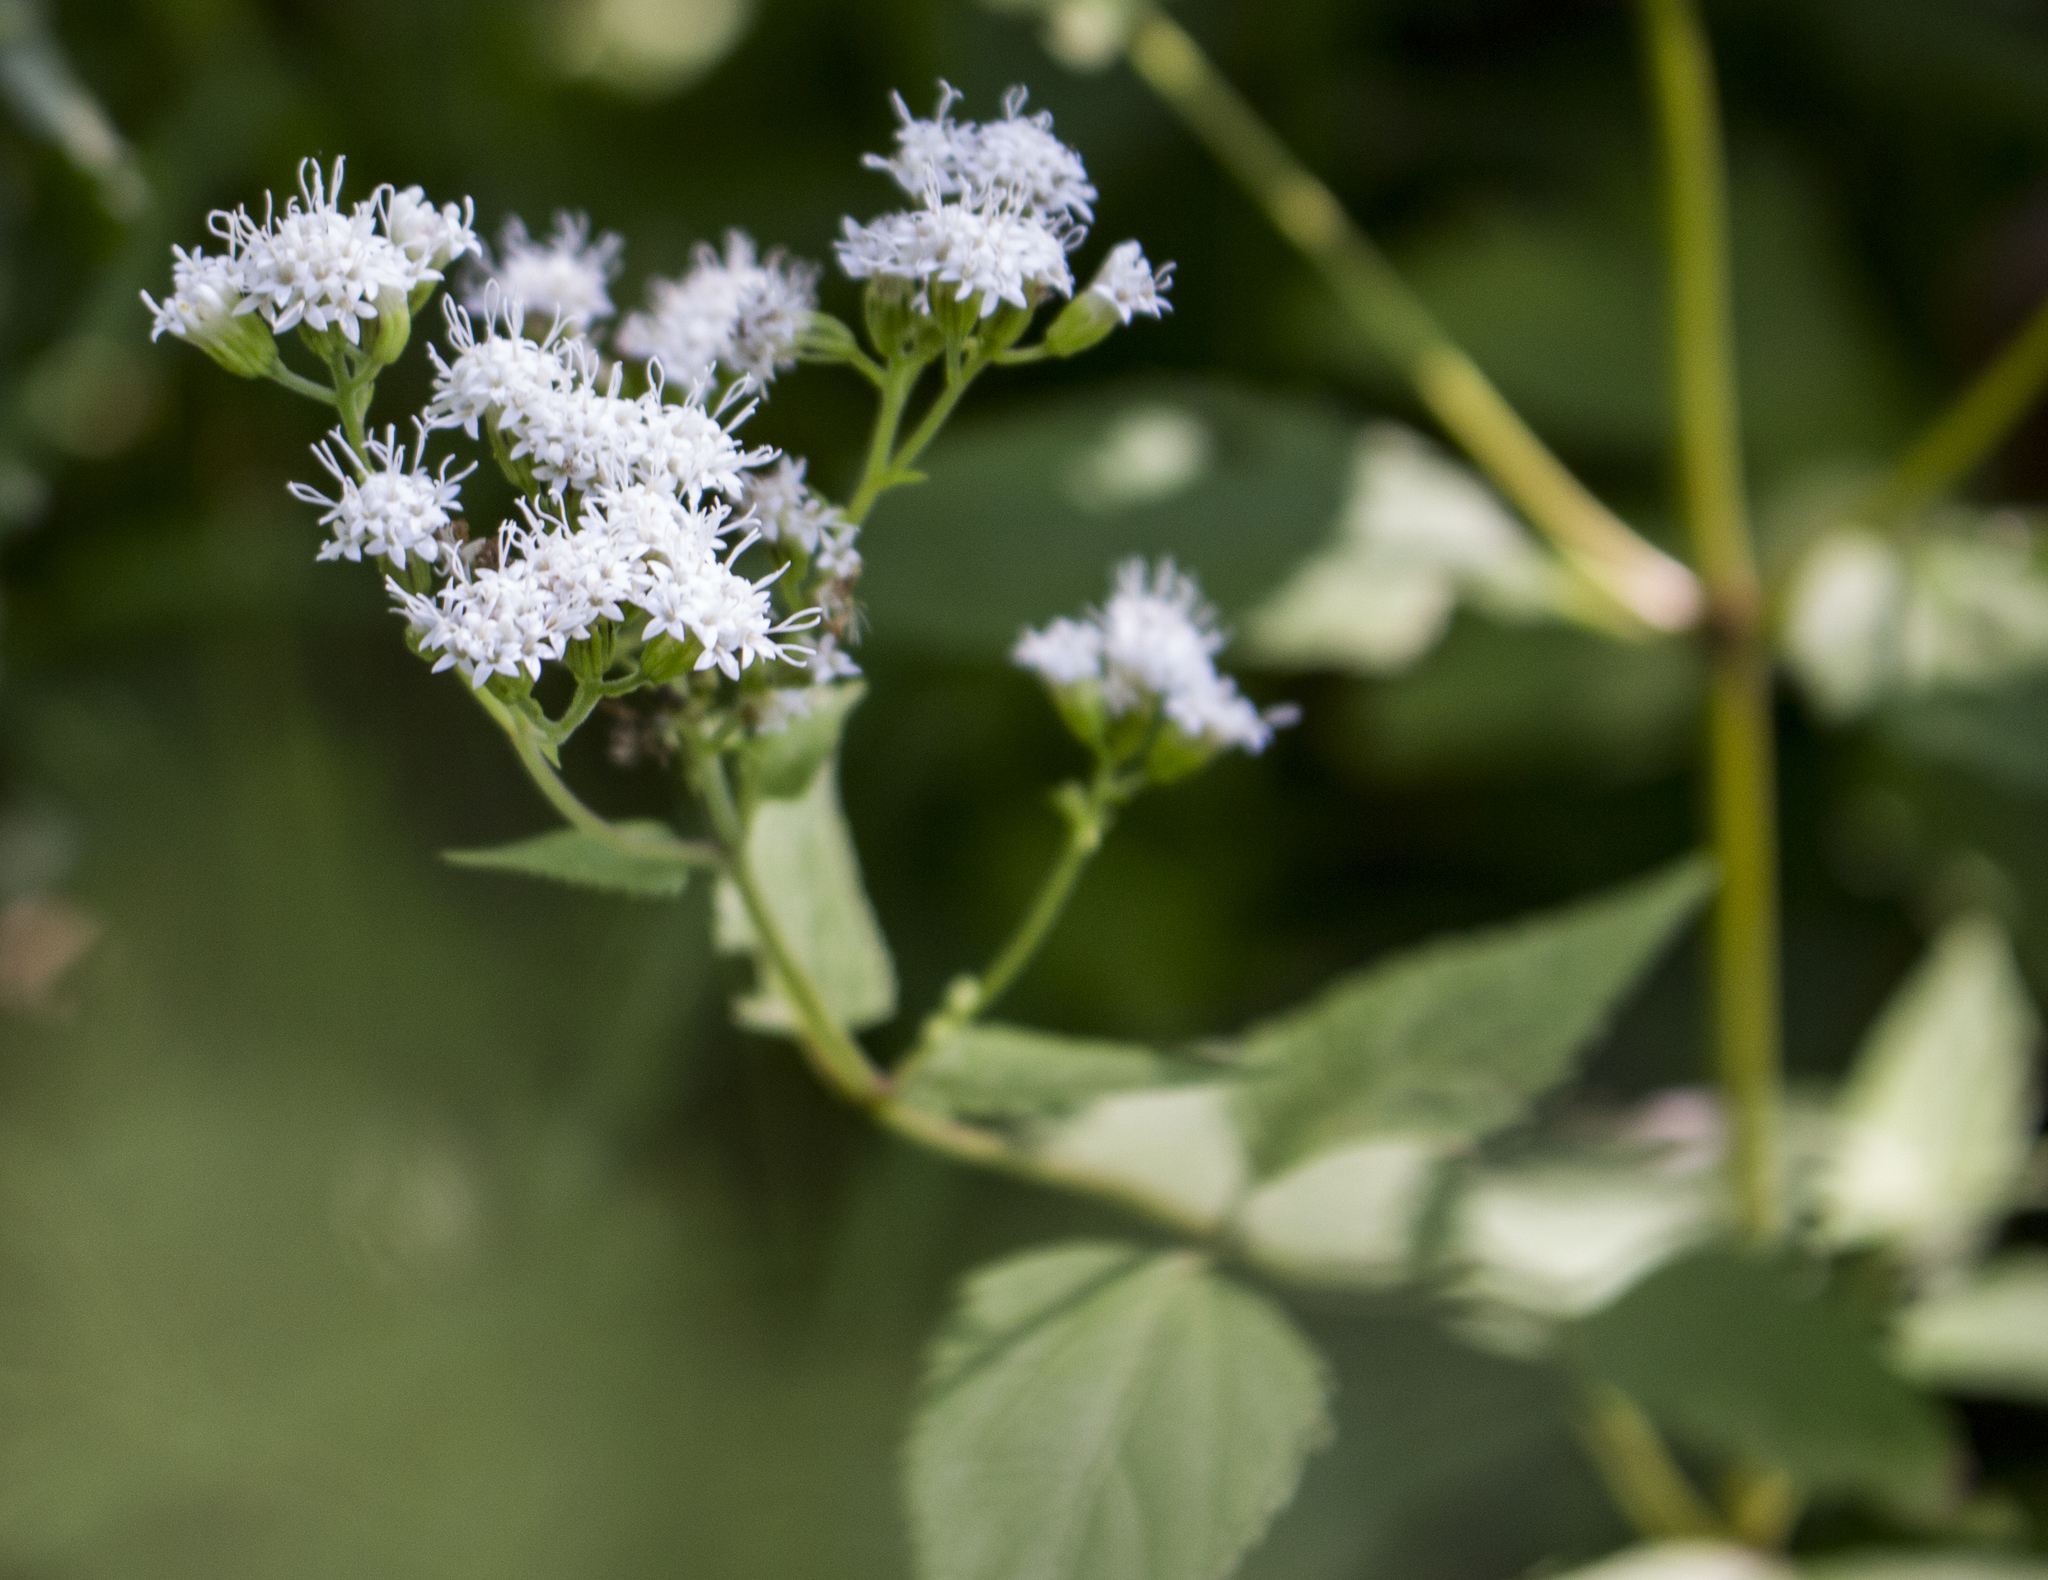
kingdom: Plantae
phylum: Tracheophyta
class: Magnoliopsida
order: Asterales
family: Asteraceae
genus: Ageratina
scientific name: Ageratina altissima
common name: White snakeroot
